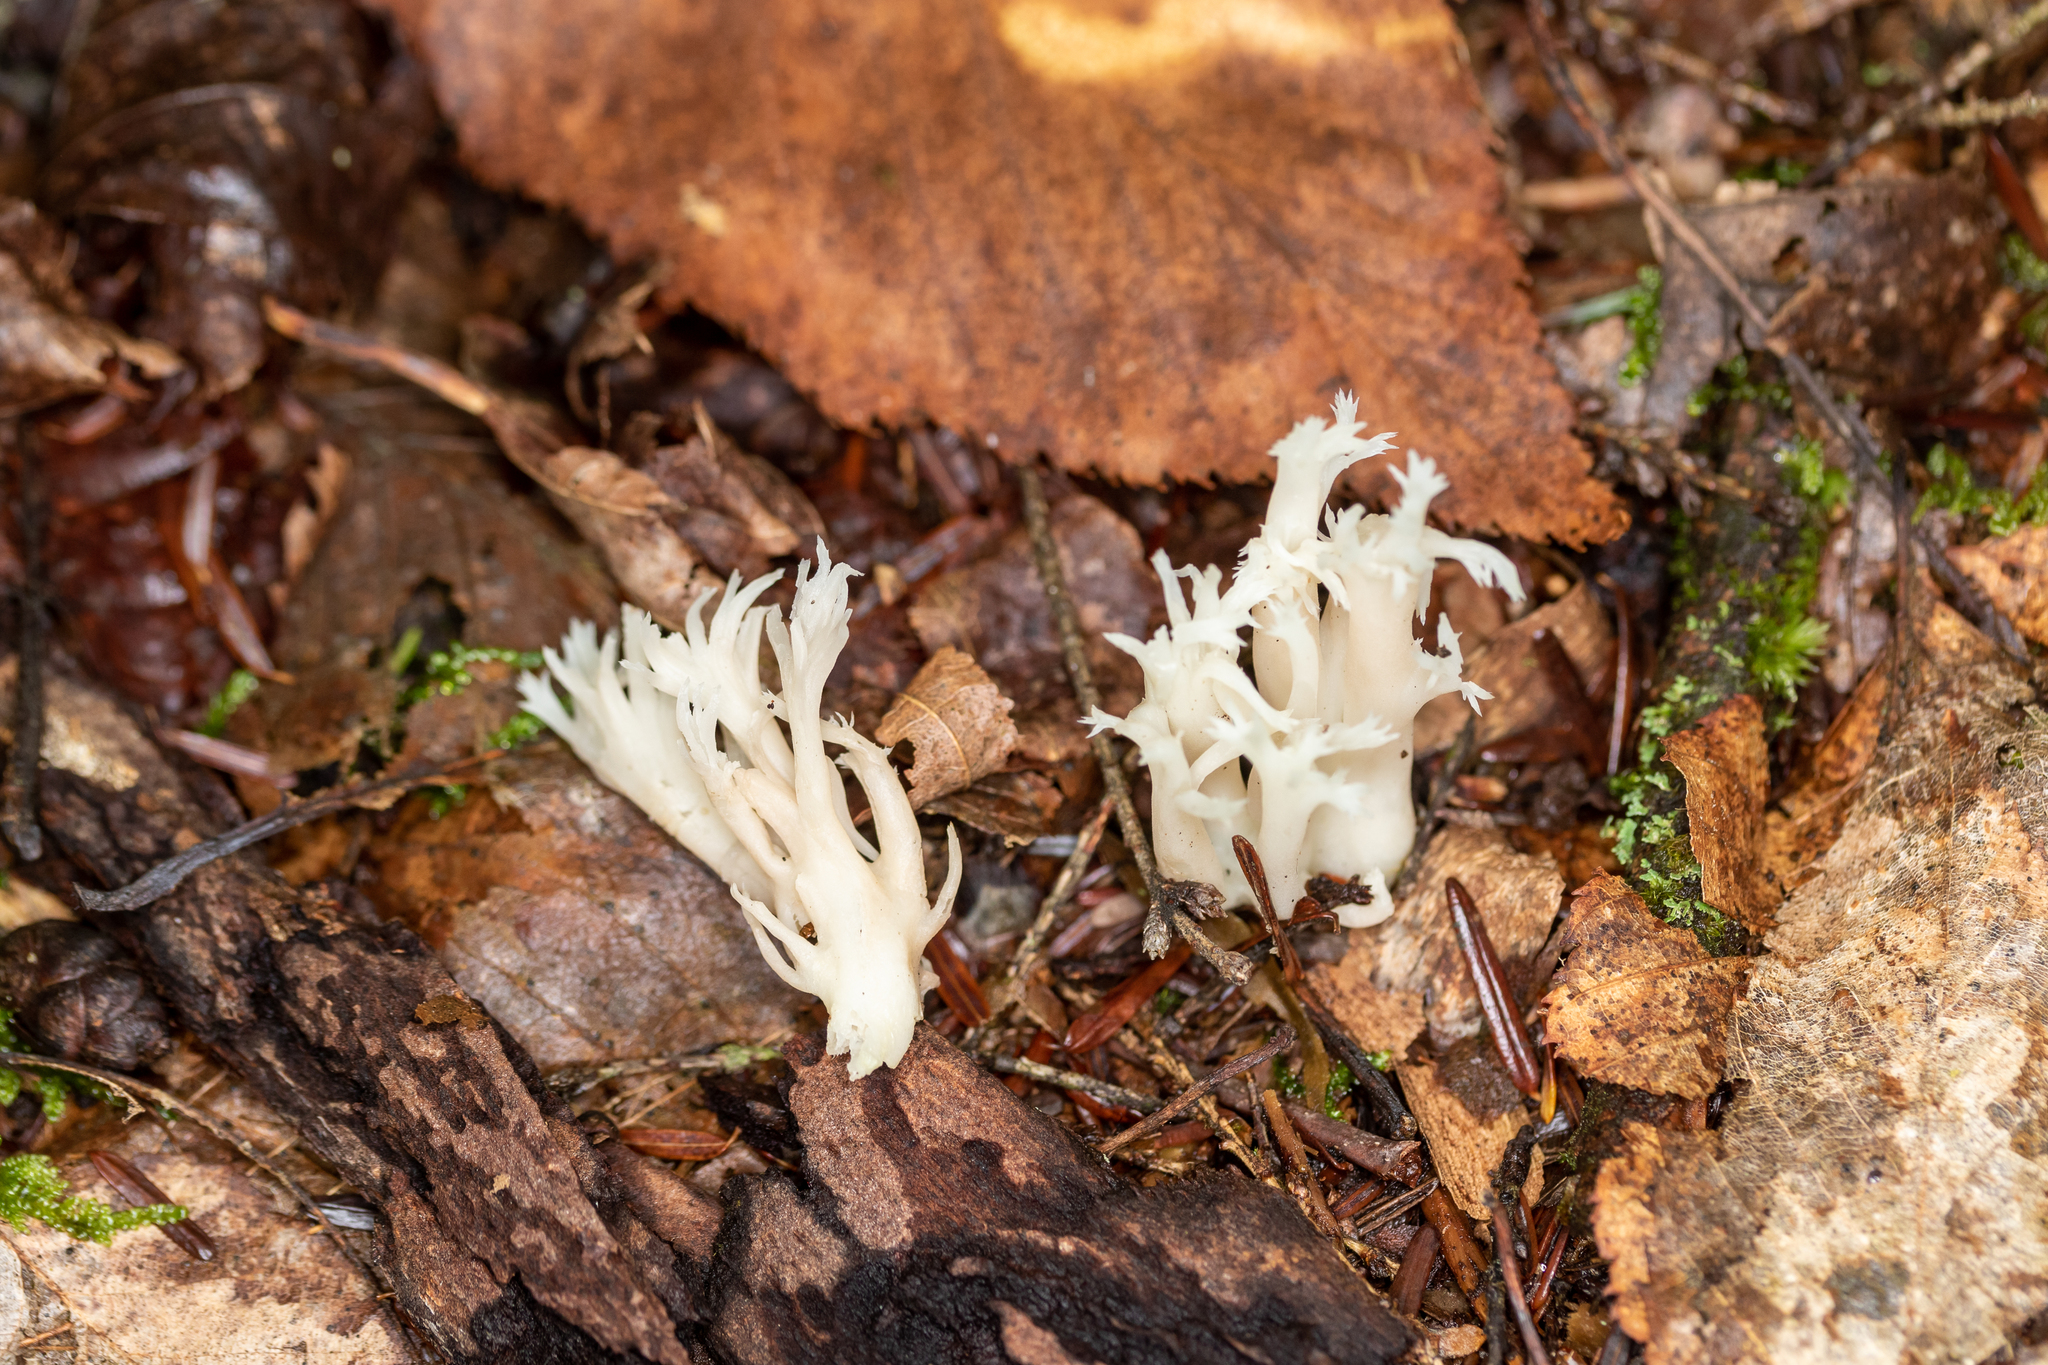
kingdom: Fungi
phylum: Basidiomycota
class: Agaricomycetes
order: Cantharellales
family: Hydnaceae
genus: Clavulina
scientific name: Clavulina coralloides
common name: Crested coral
